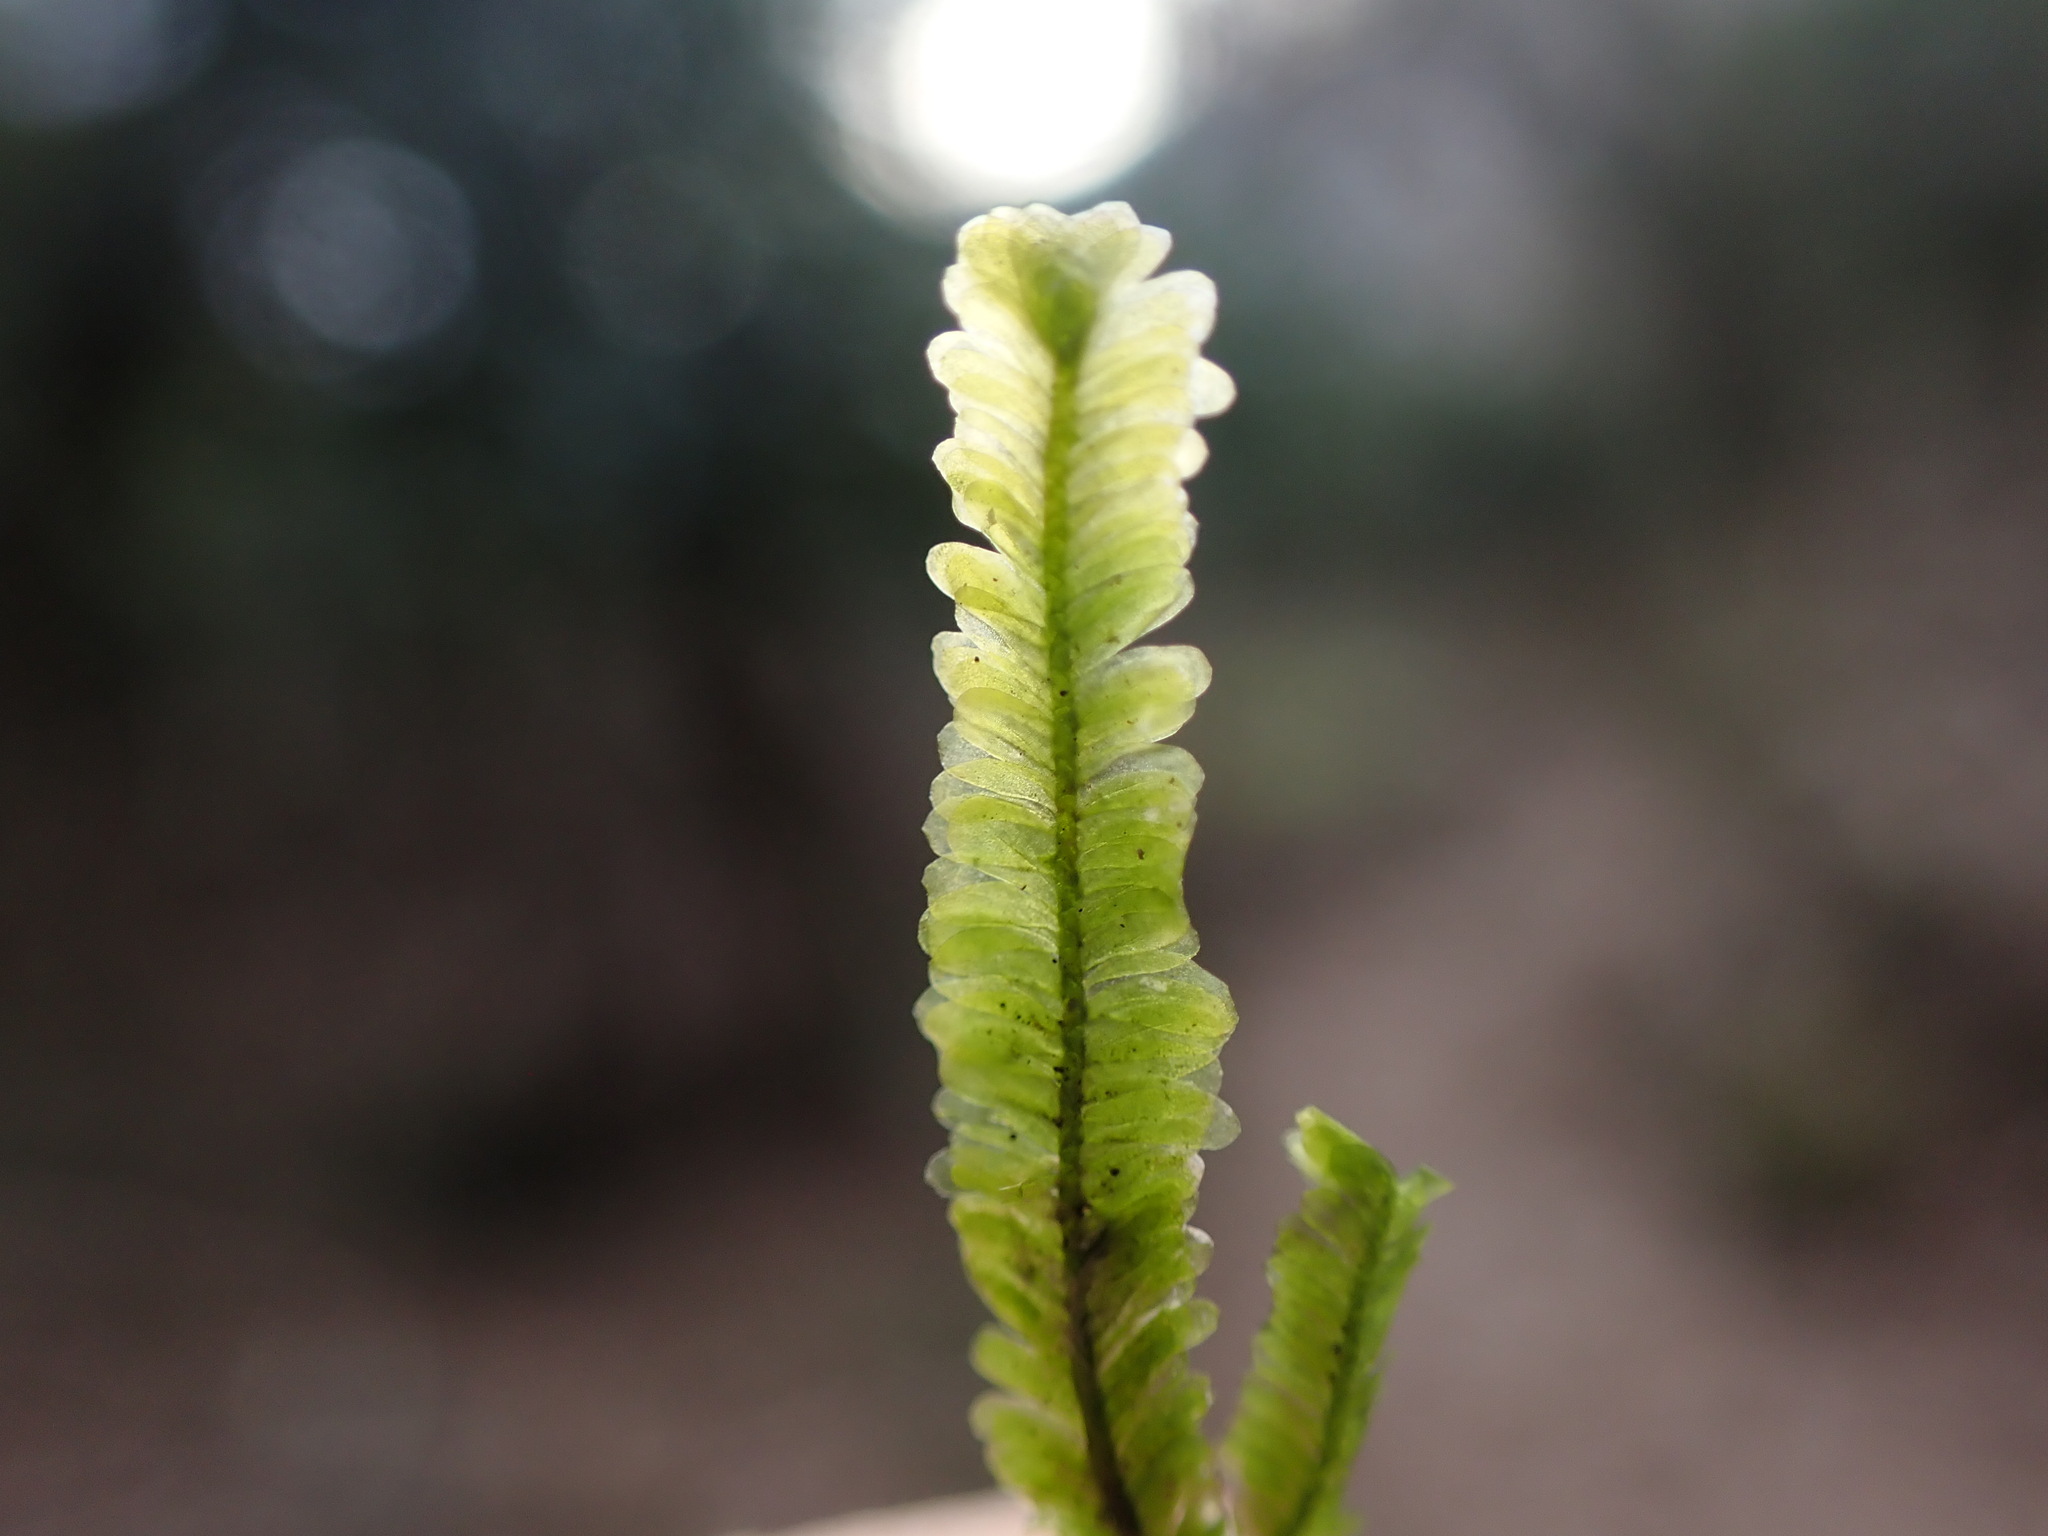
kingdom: Plantae
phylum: Bryophyta
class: Bryopsida
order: Hypnales
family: Neckeraceae
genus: Planicladium
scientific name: Planicladium nitidulum
